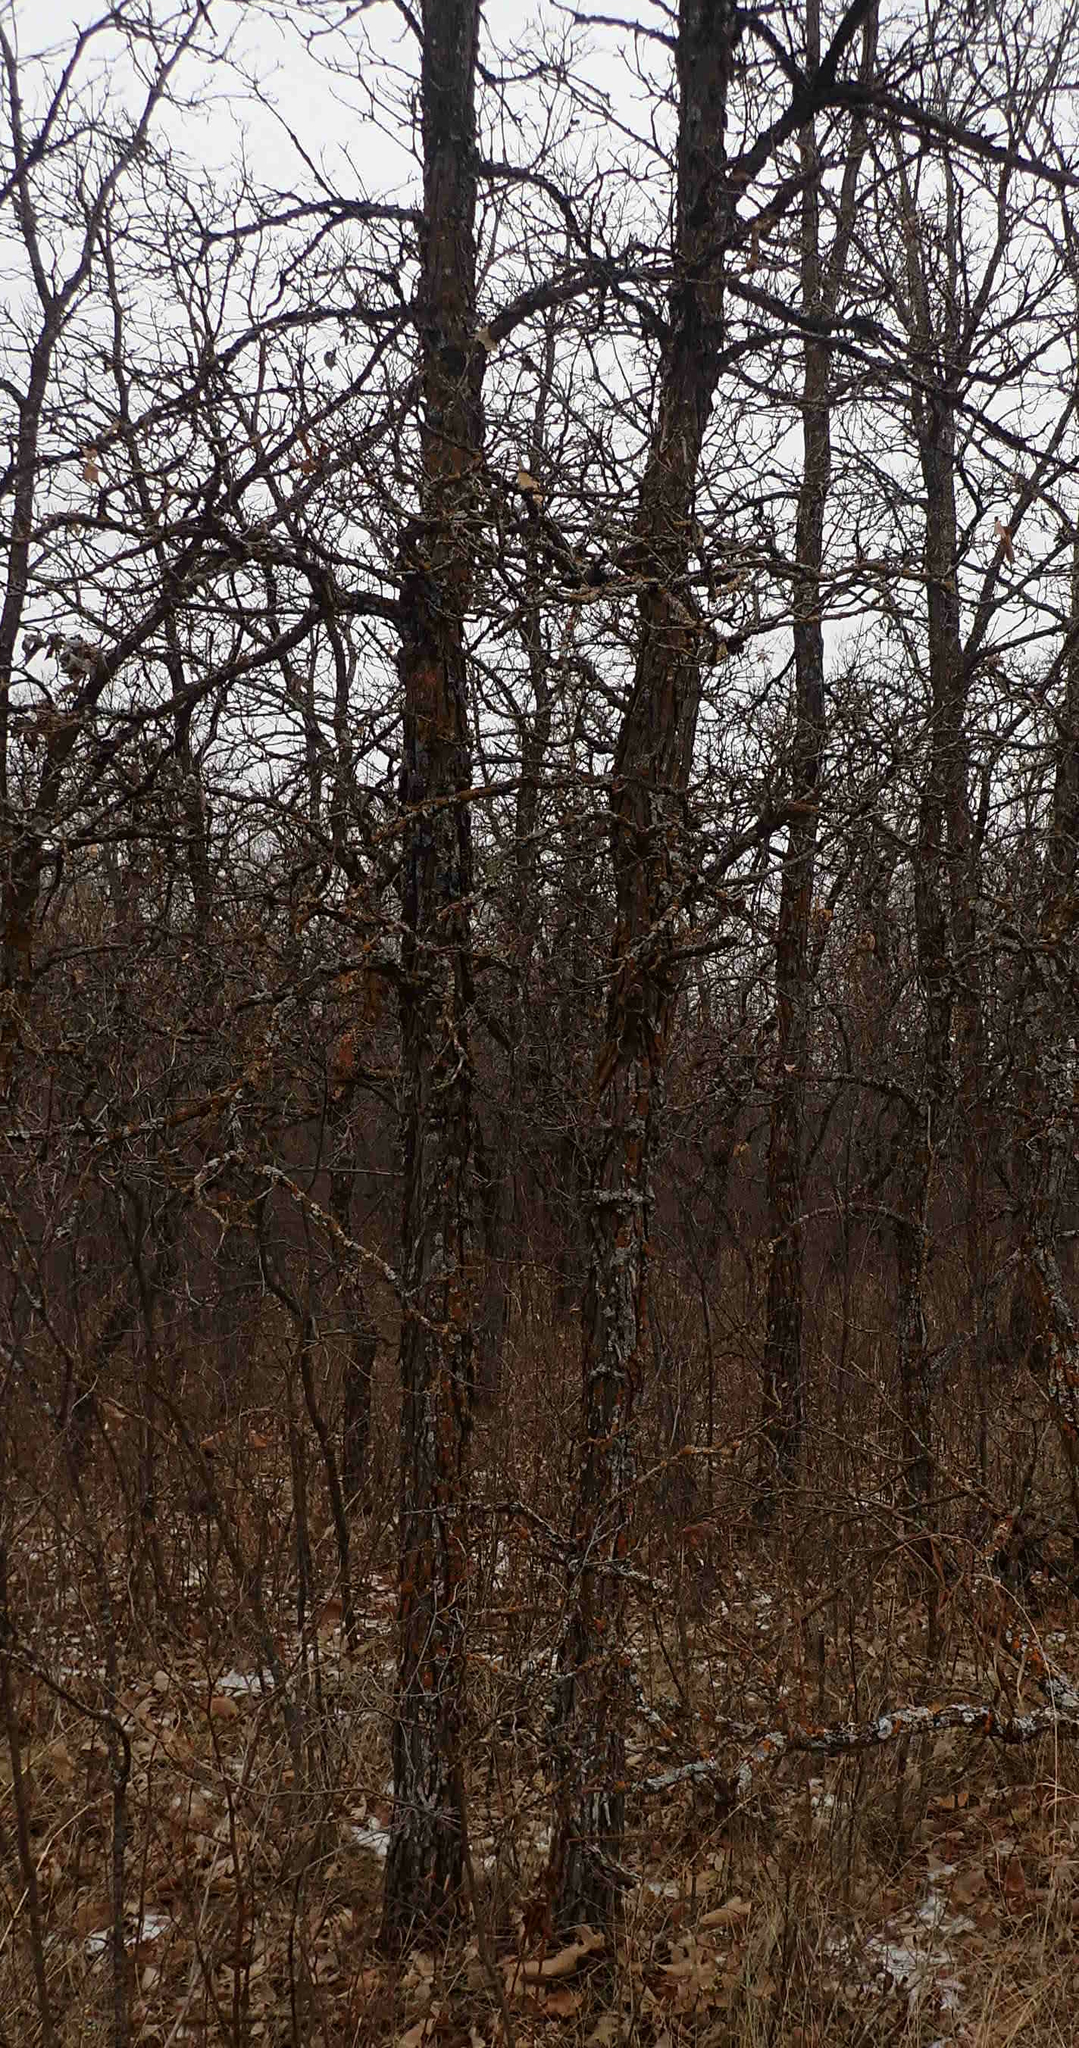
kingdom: Plantae
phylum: Tracheophyta
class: Magnoliopsida
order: Fagales
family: Fagaceae
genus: Quercus
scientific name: Quercus macrocarpa
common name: Bur oak
